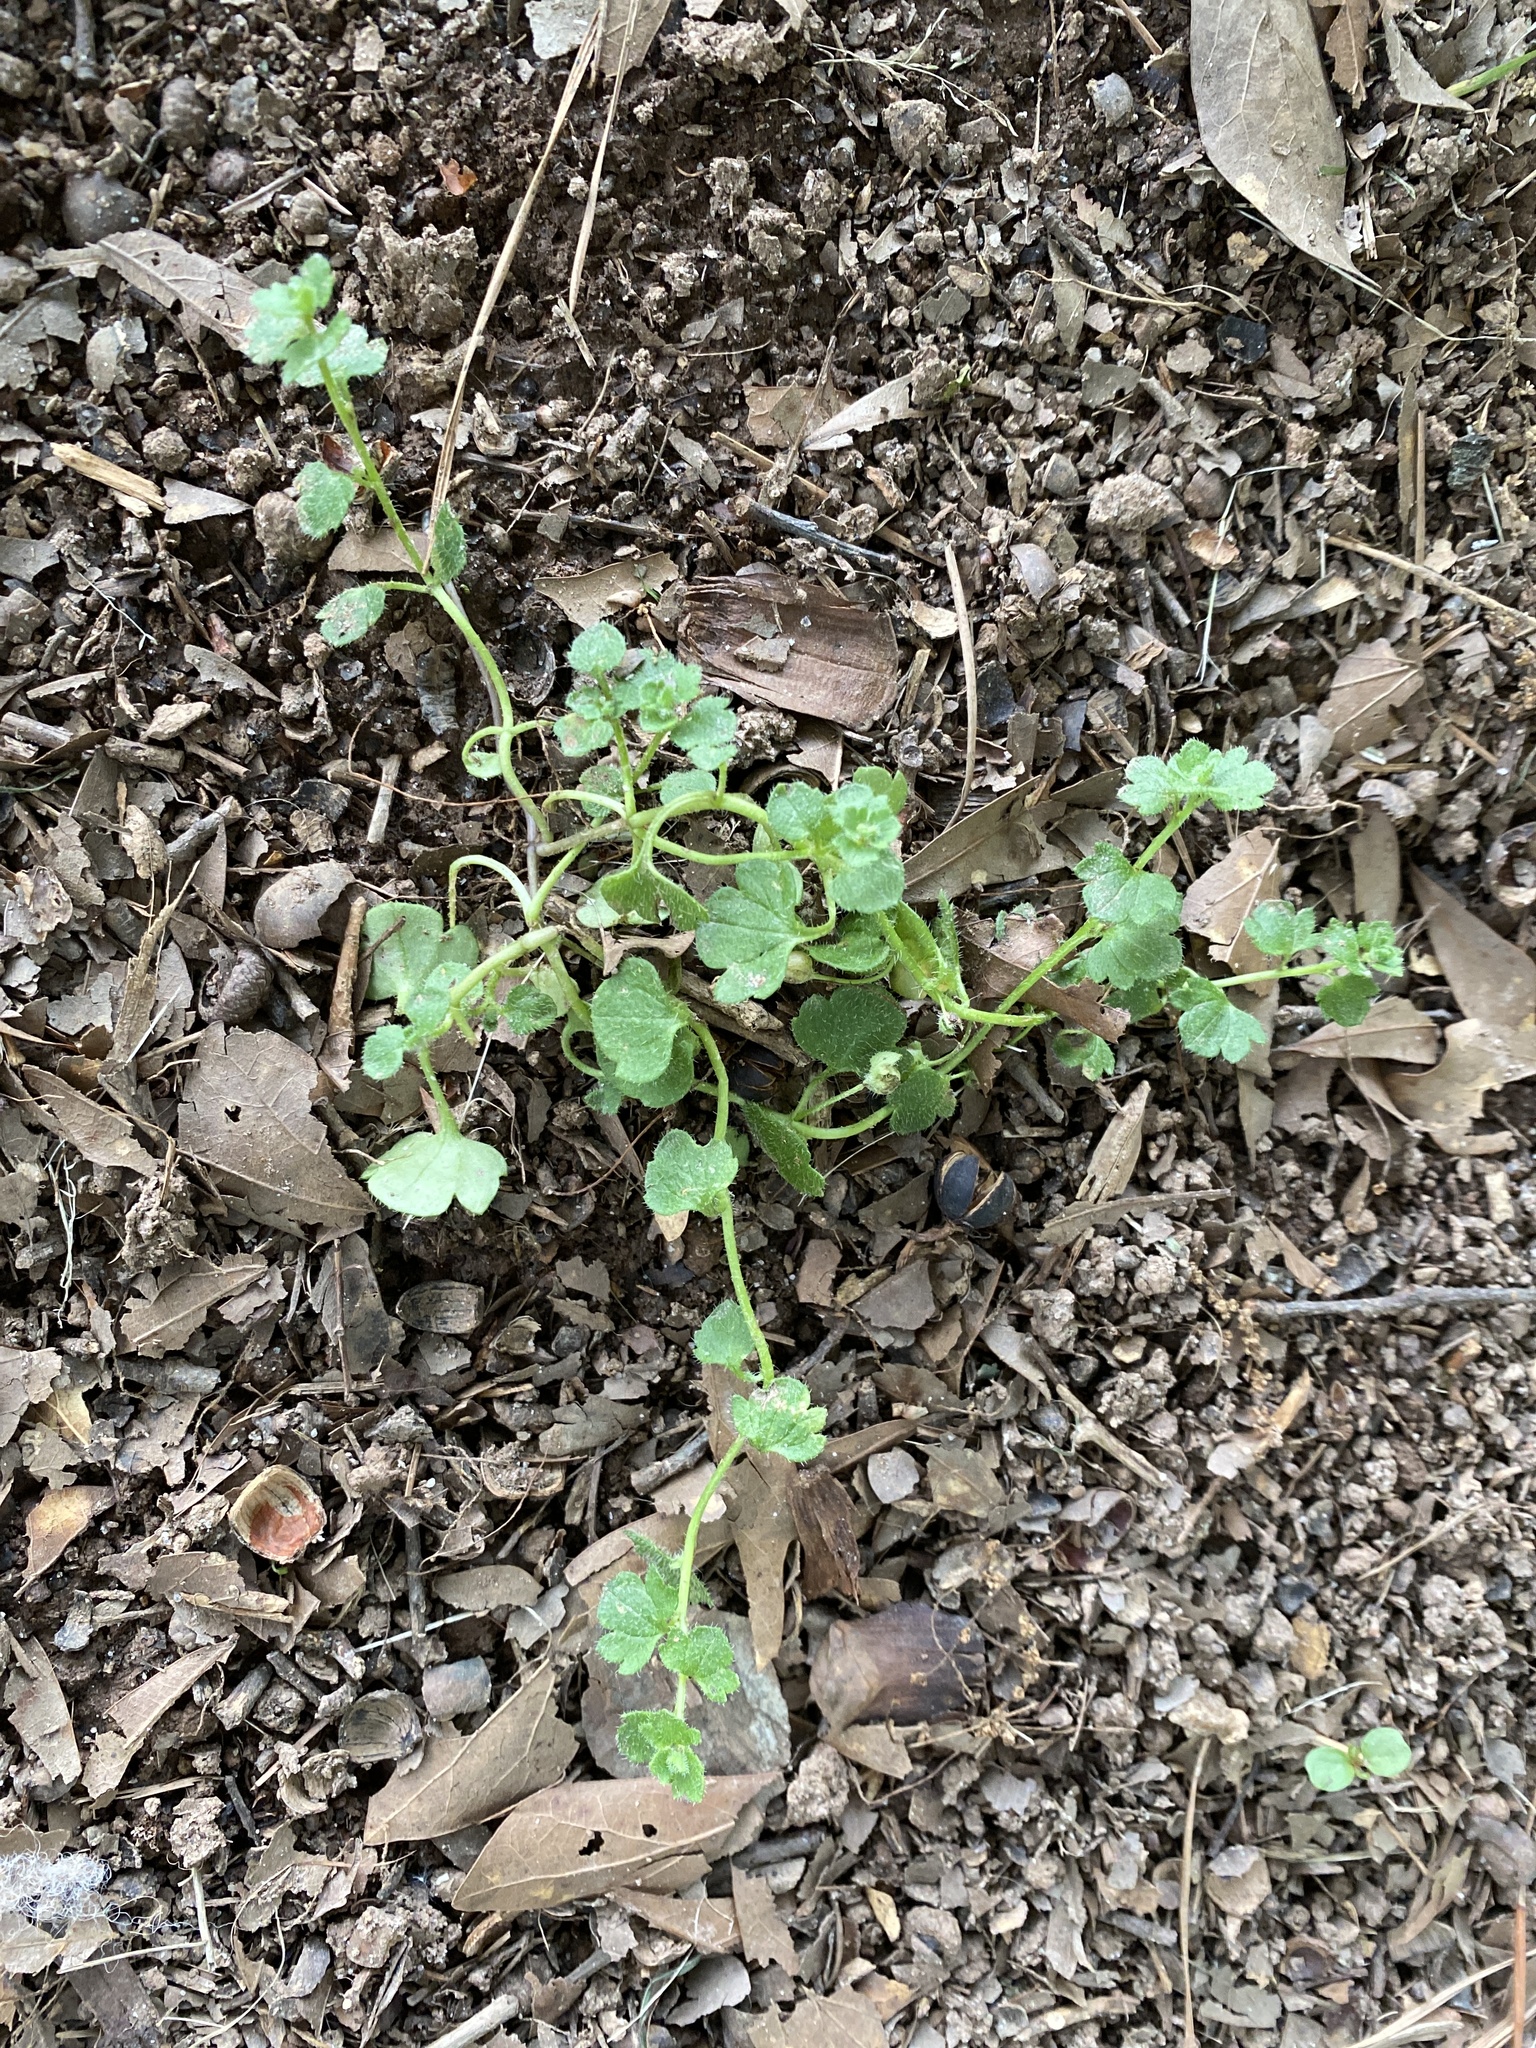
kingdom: Plantae
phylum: Tracheophyta
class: Magnoliopsida
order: Lamiales
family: Plantaginaceae
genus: Veronica
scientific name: Veronica hederifolia
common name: Ivy-leaved speedwell
